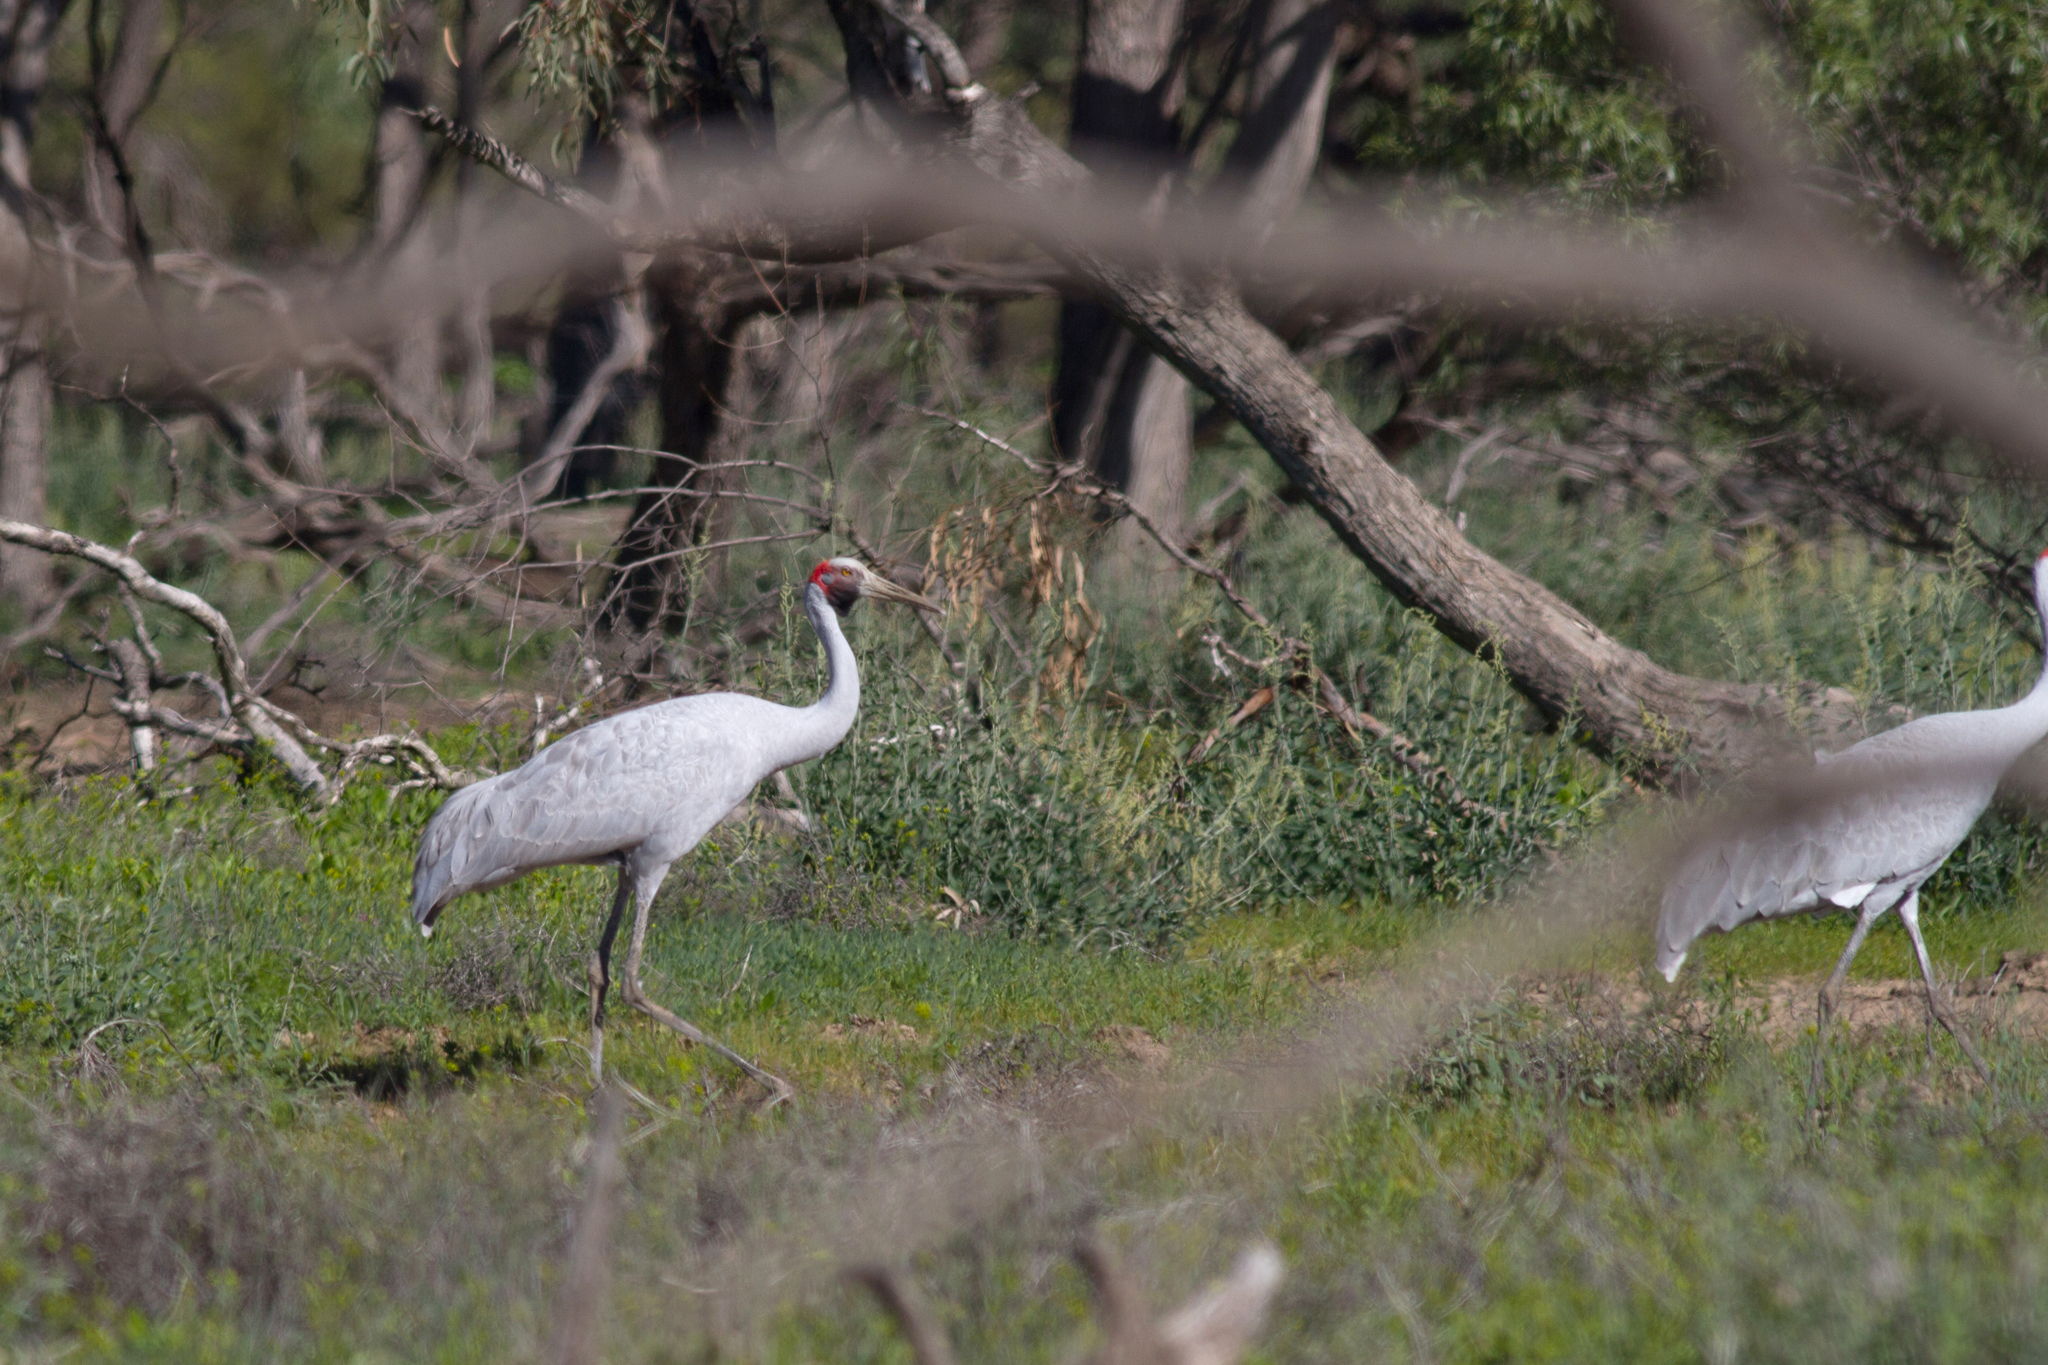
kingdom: Animalia
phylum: Chordata
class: Aves
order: Gruiformes
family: Gruidae
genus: Grus
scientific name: Grus rubicunda
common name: Brolga
